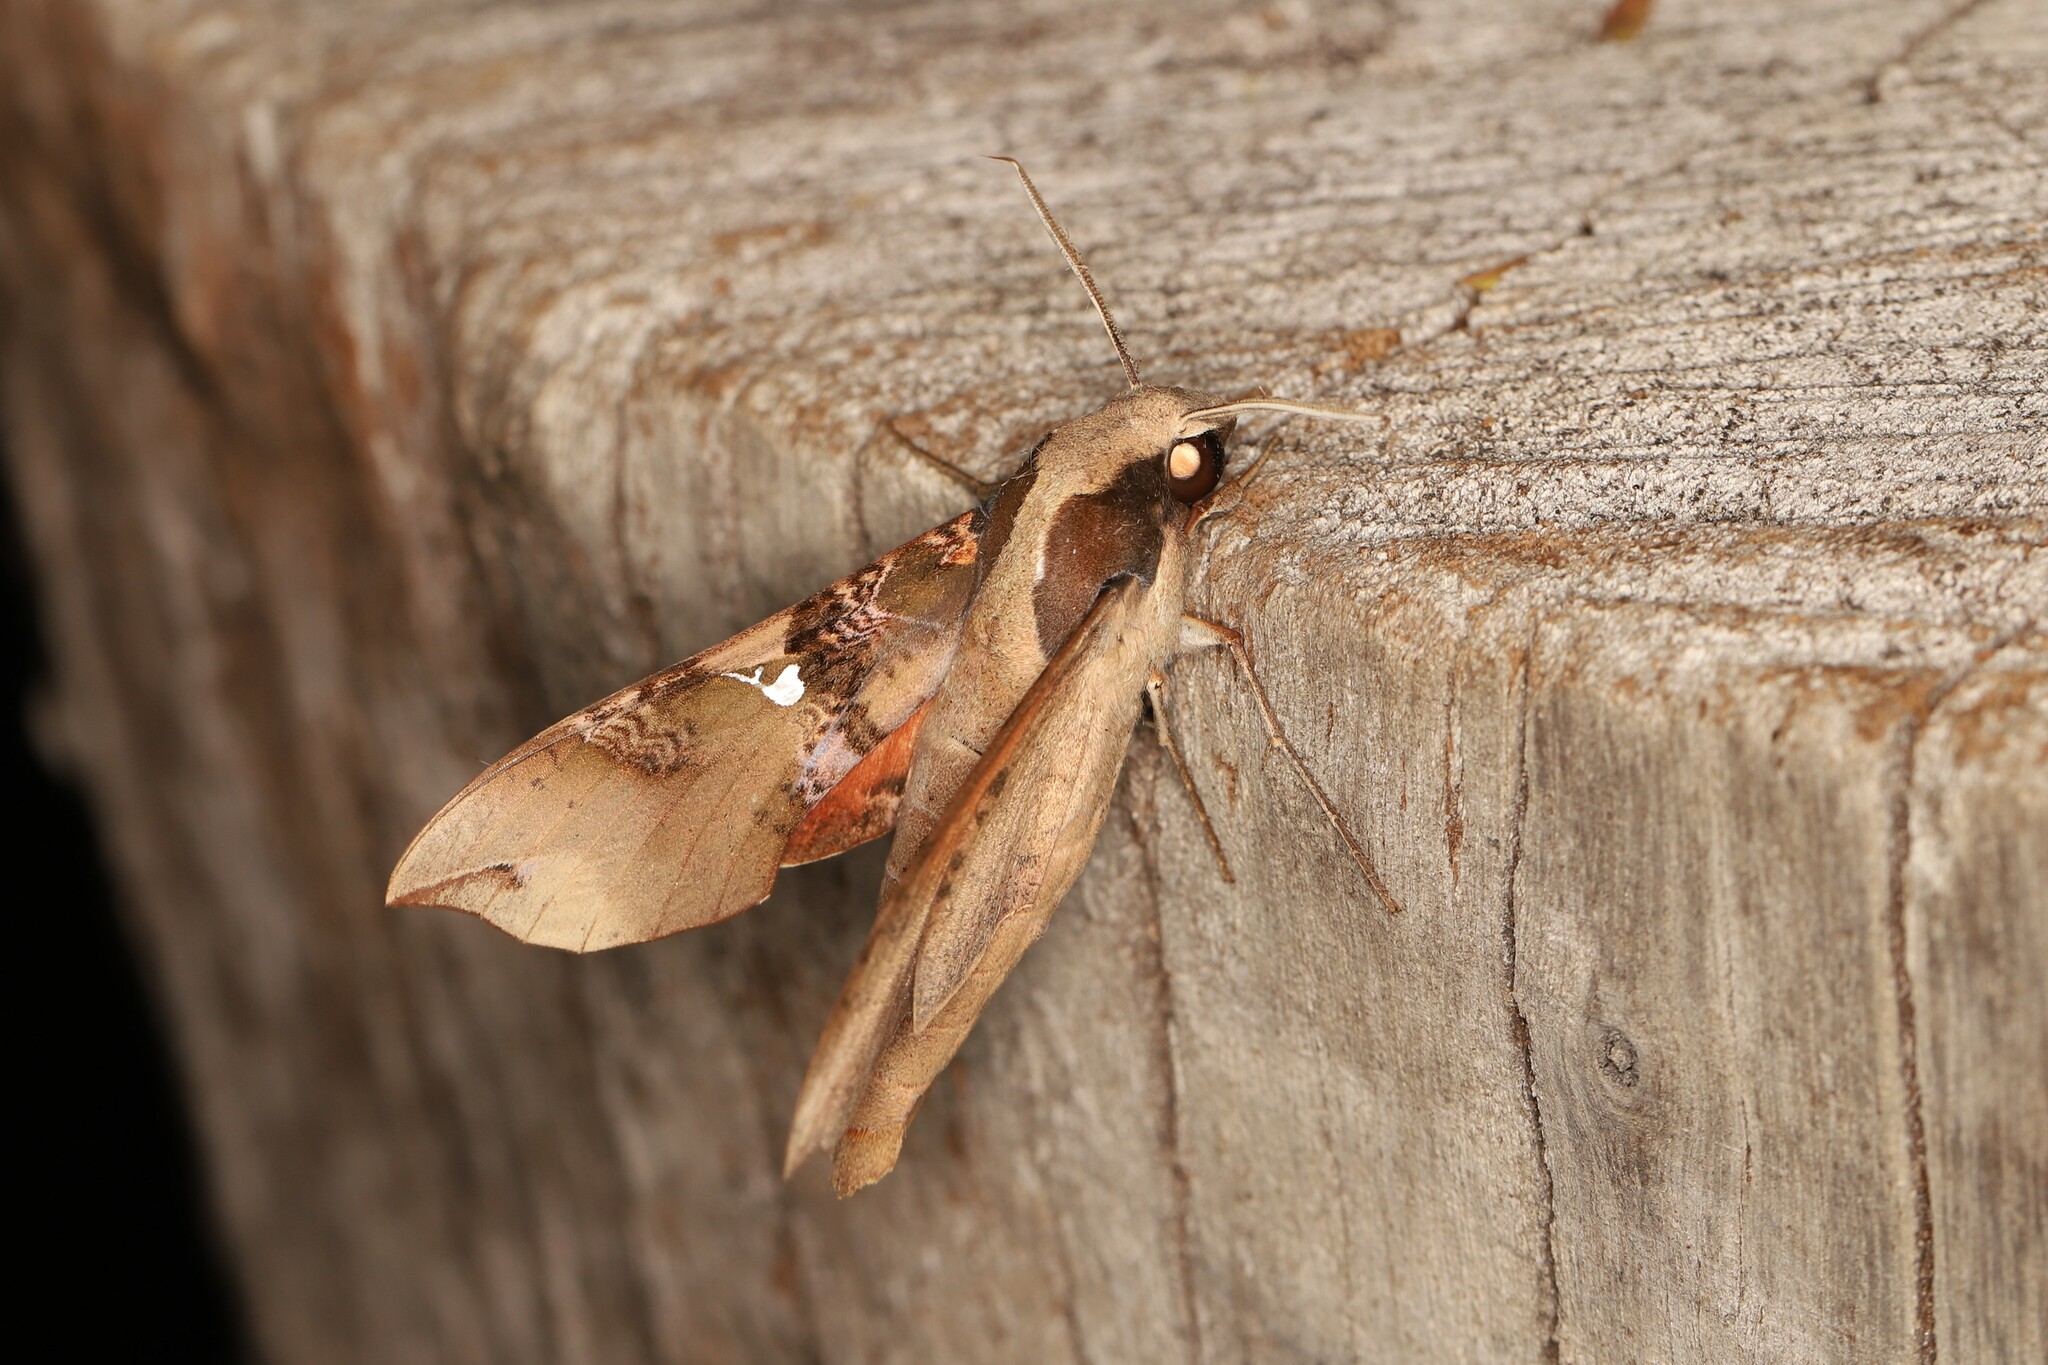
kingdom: Animalia
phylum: Arthropoda
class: Insecta
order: Lepidoptera
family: Sphingidae
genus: Callionima
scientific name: Callionima parce
